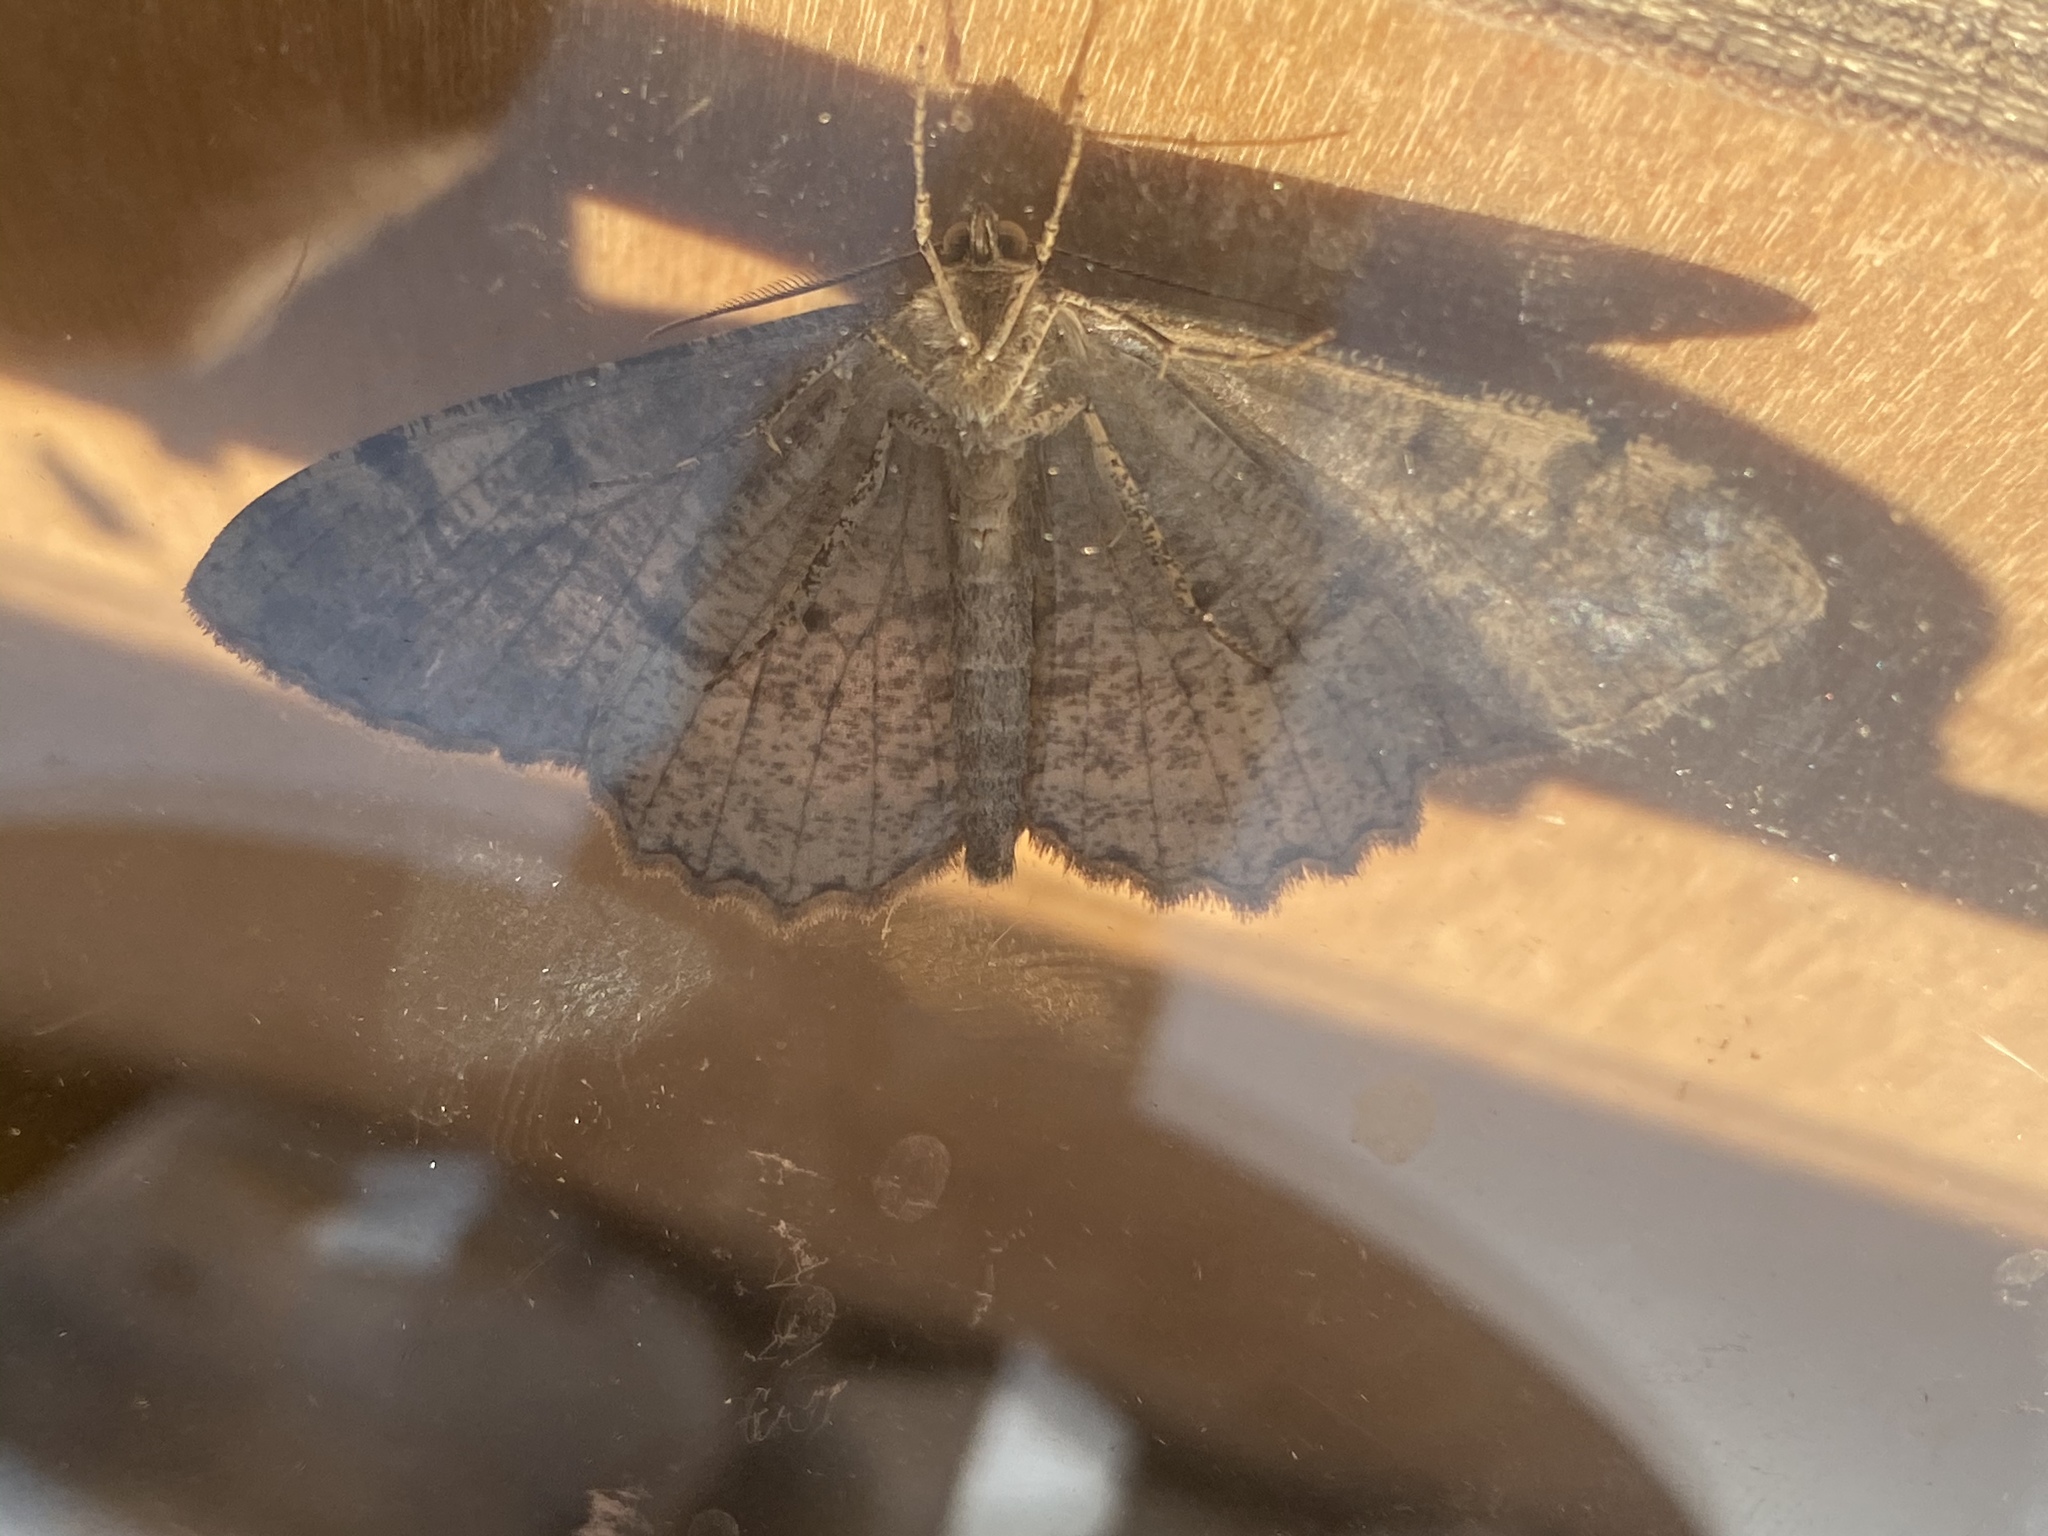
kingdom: Animalia
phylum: Arthropoda
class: Insecta
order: Lepidoptera
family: Geometridae
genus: Peribatodes
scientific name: Peribatodes rhomboidaria
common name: Willow beauty
